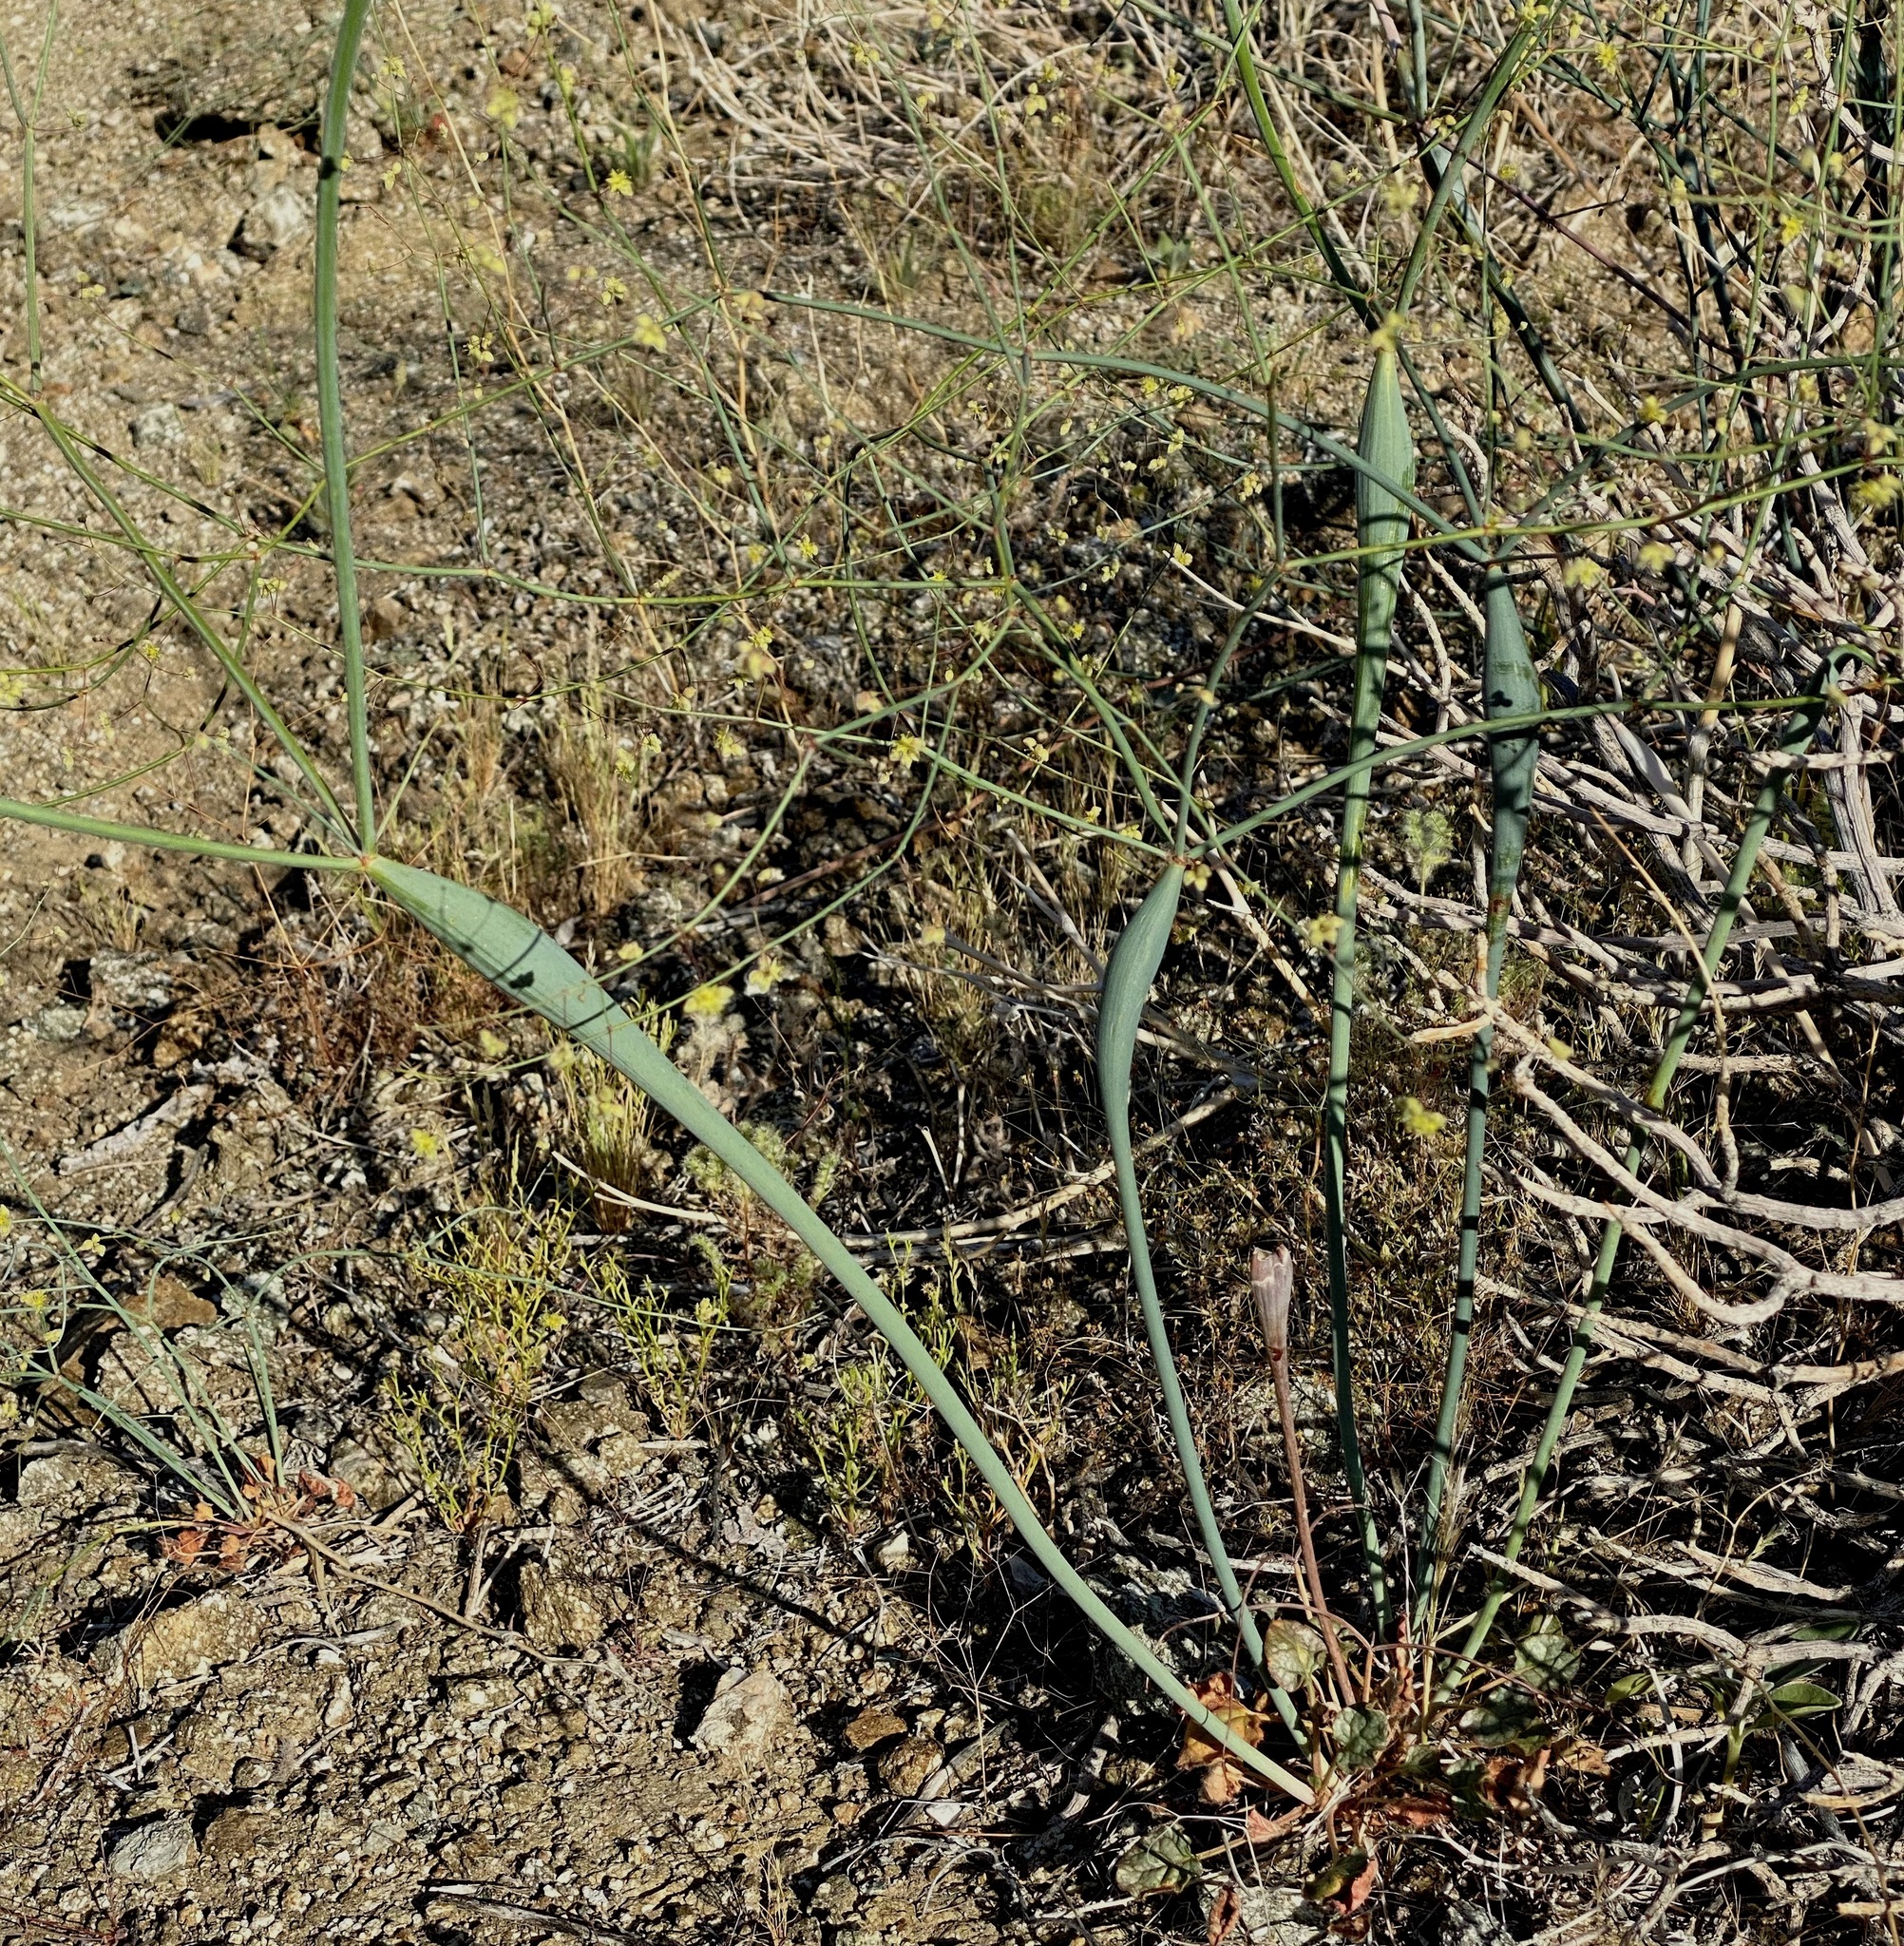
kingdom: Plantae
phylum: Tracheophyta
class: Magnoliopsida
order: Caryophyllales
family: Polygonaceae
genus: Eriogonum
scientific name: Eriogonum inflatum
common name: Desert trumpet
